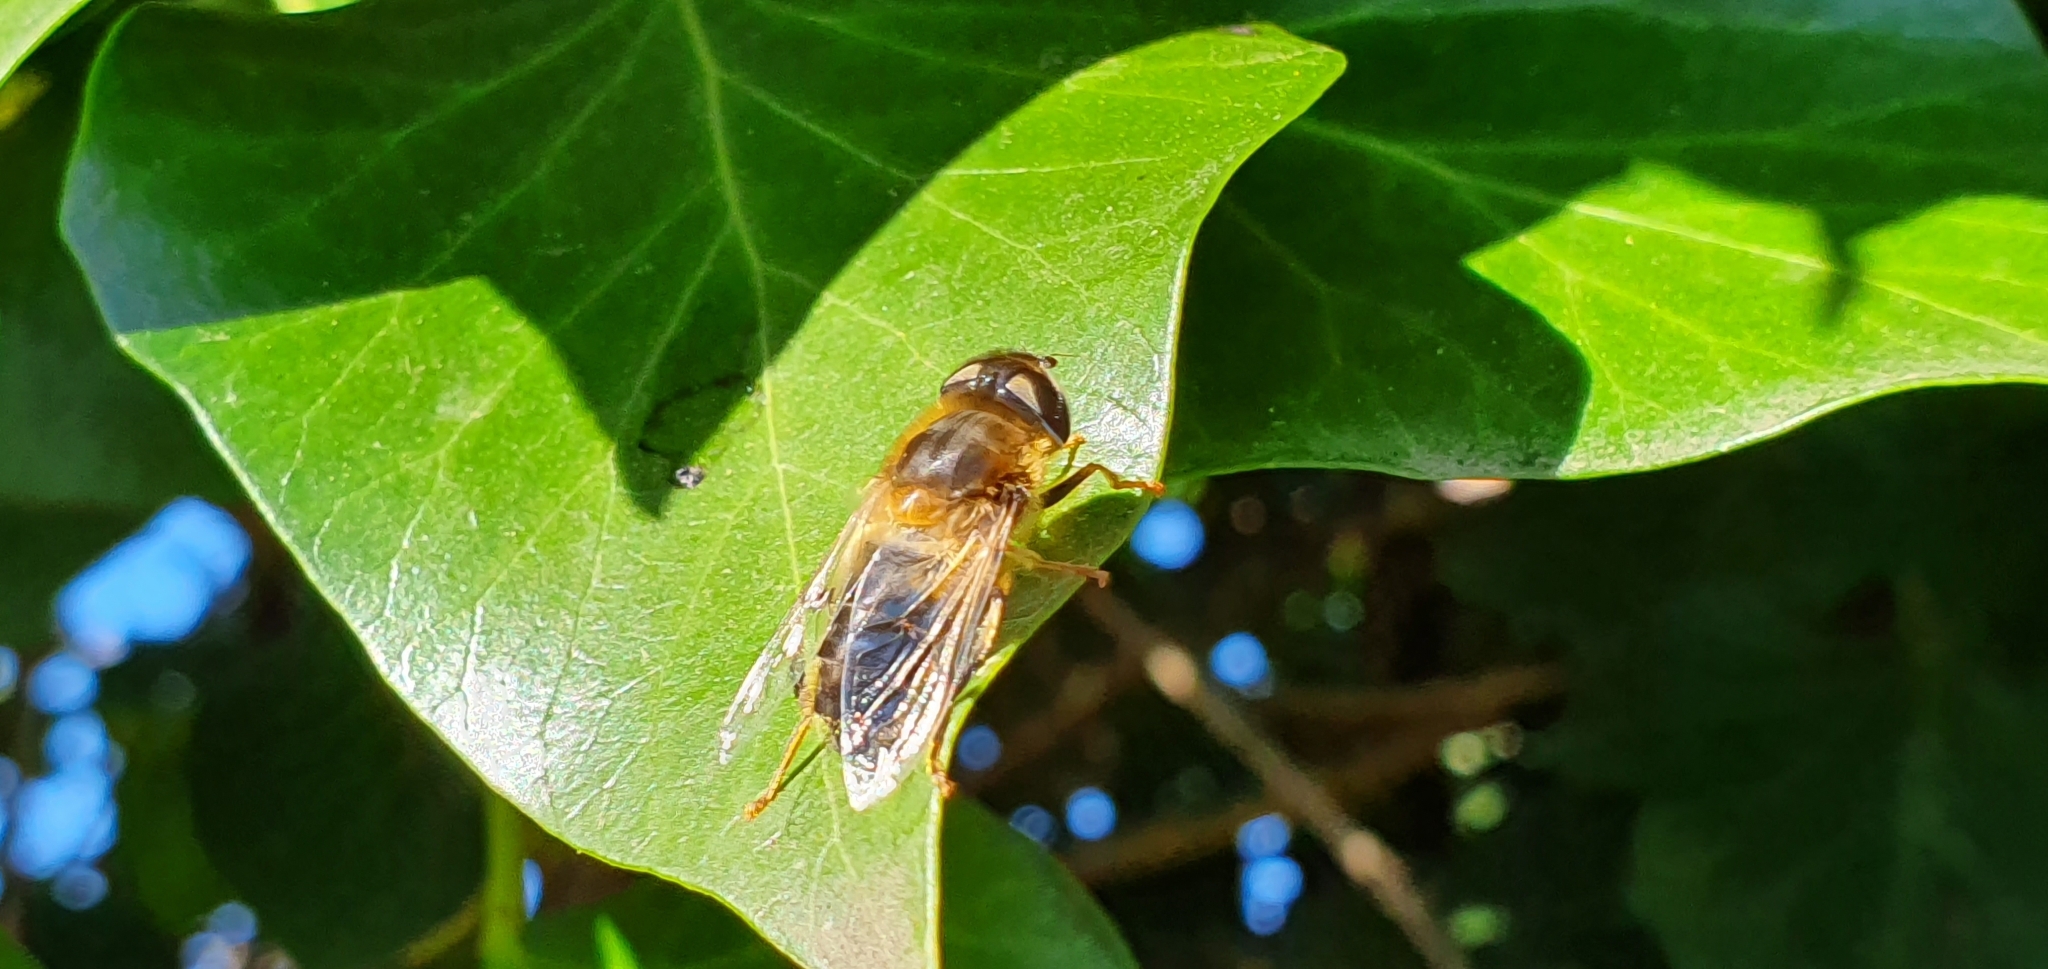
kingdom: Animalia
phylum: Arthropoda
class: Insecta
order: Diptera
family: Syrphidae
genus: Eristalis
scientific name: Eristalis tenax
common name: Drone fly
